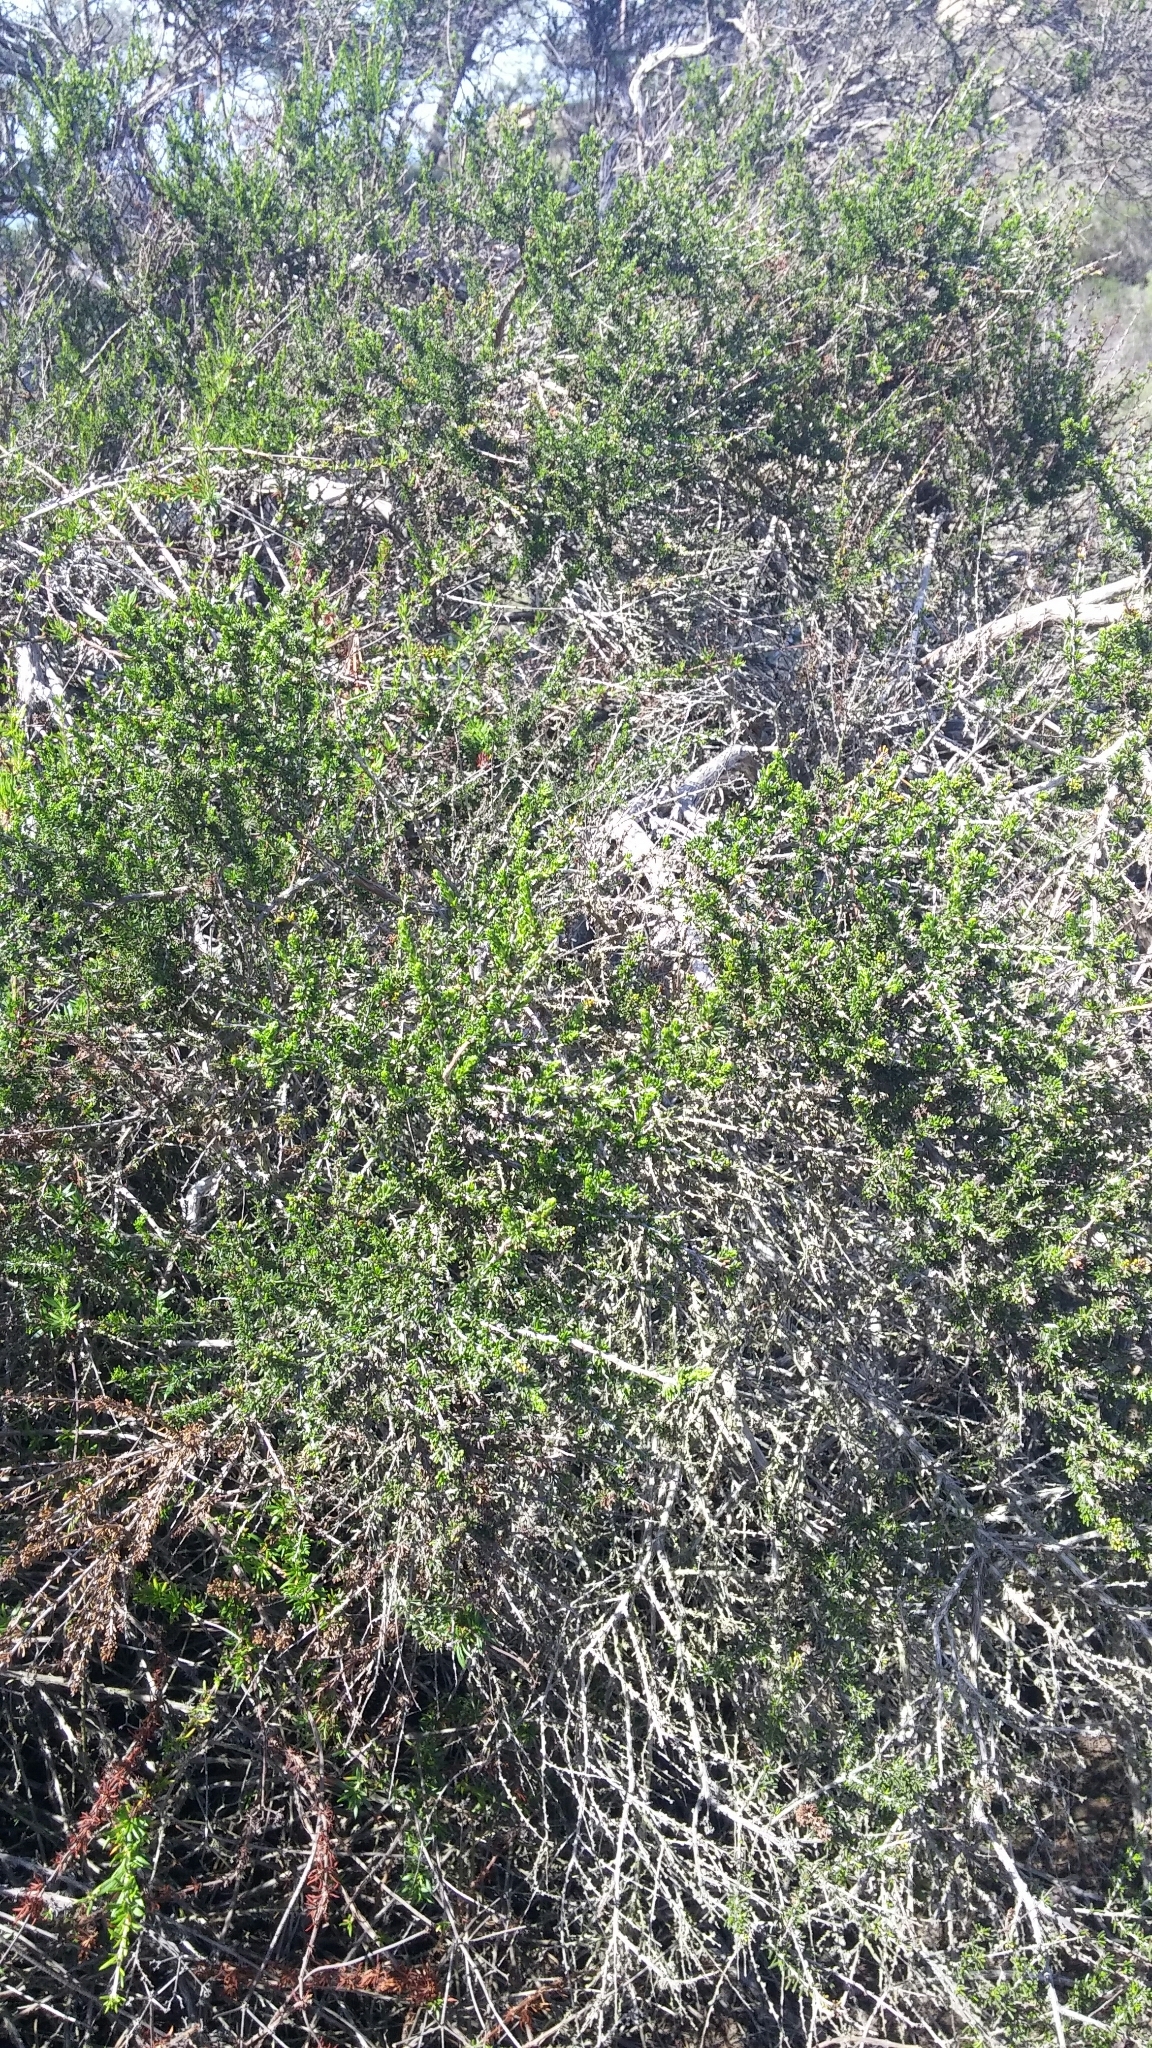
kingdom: Plantae
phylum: Tracheophyta
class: Magnoliopsida
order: Rosales
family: Rosaceae
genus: Adenostoma
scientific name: Adenostoma fasciculatum
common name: Chamise
